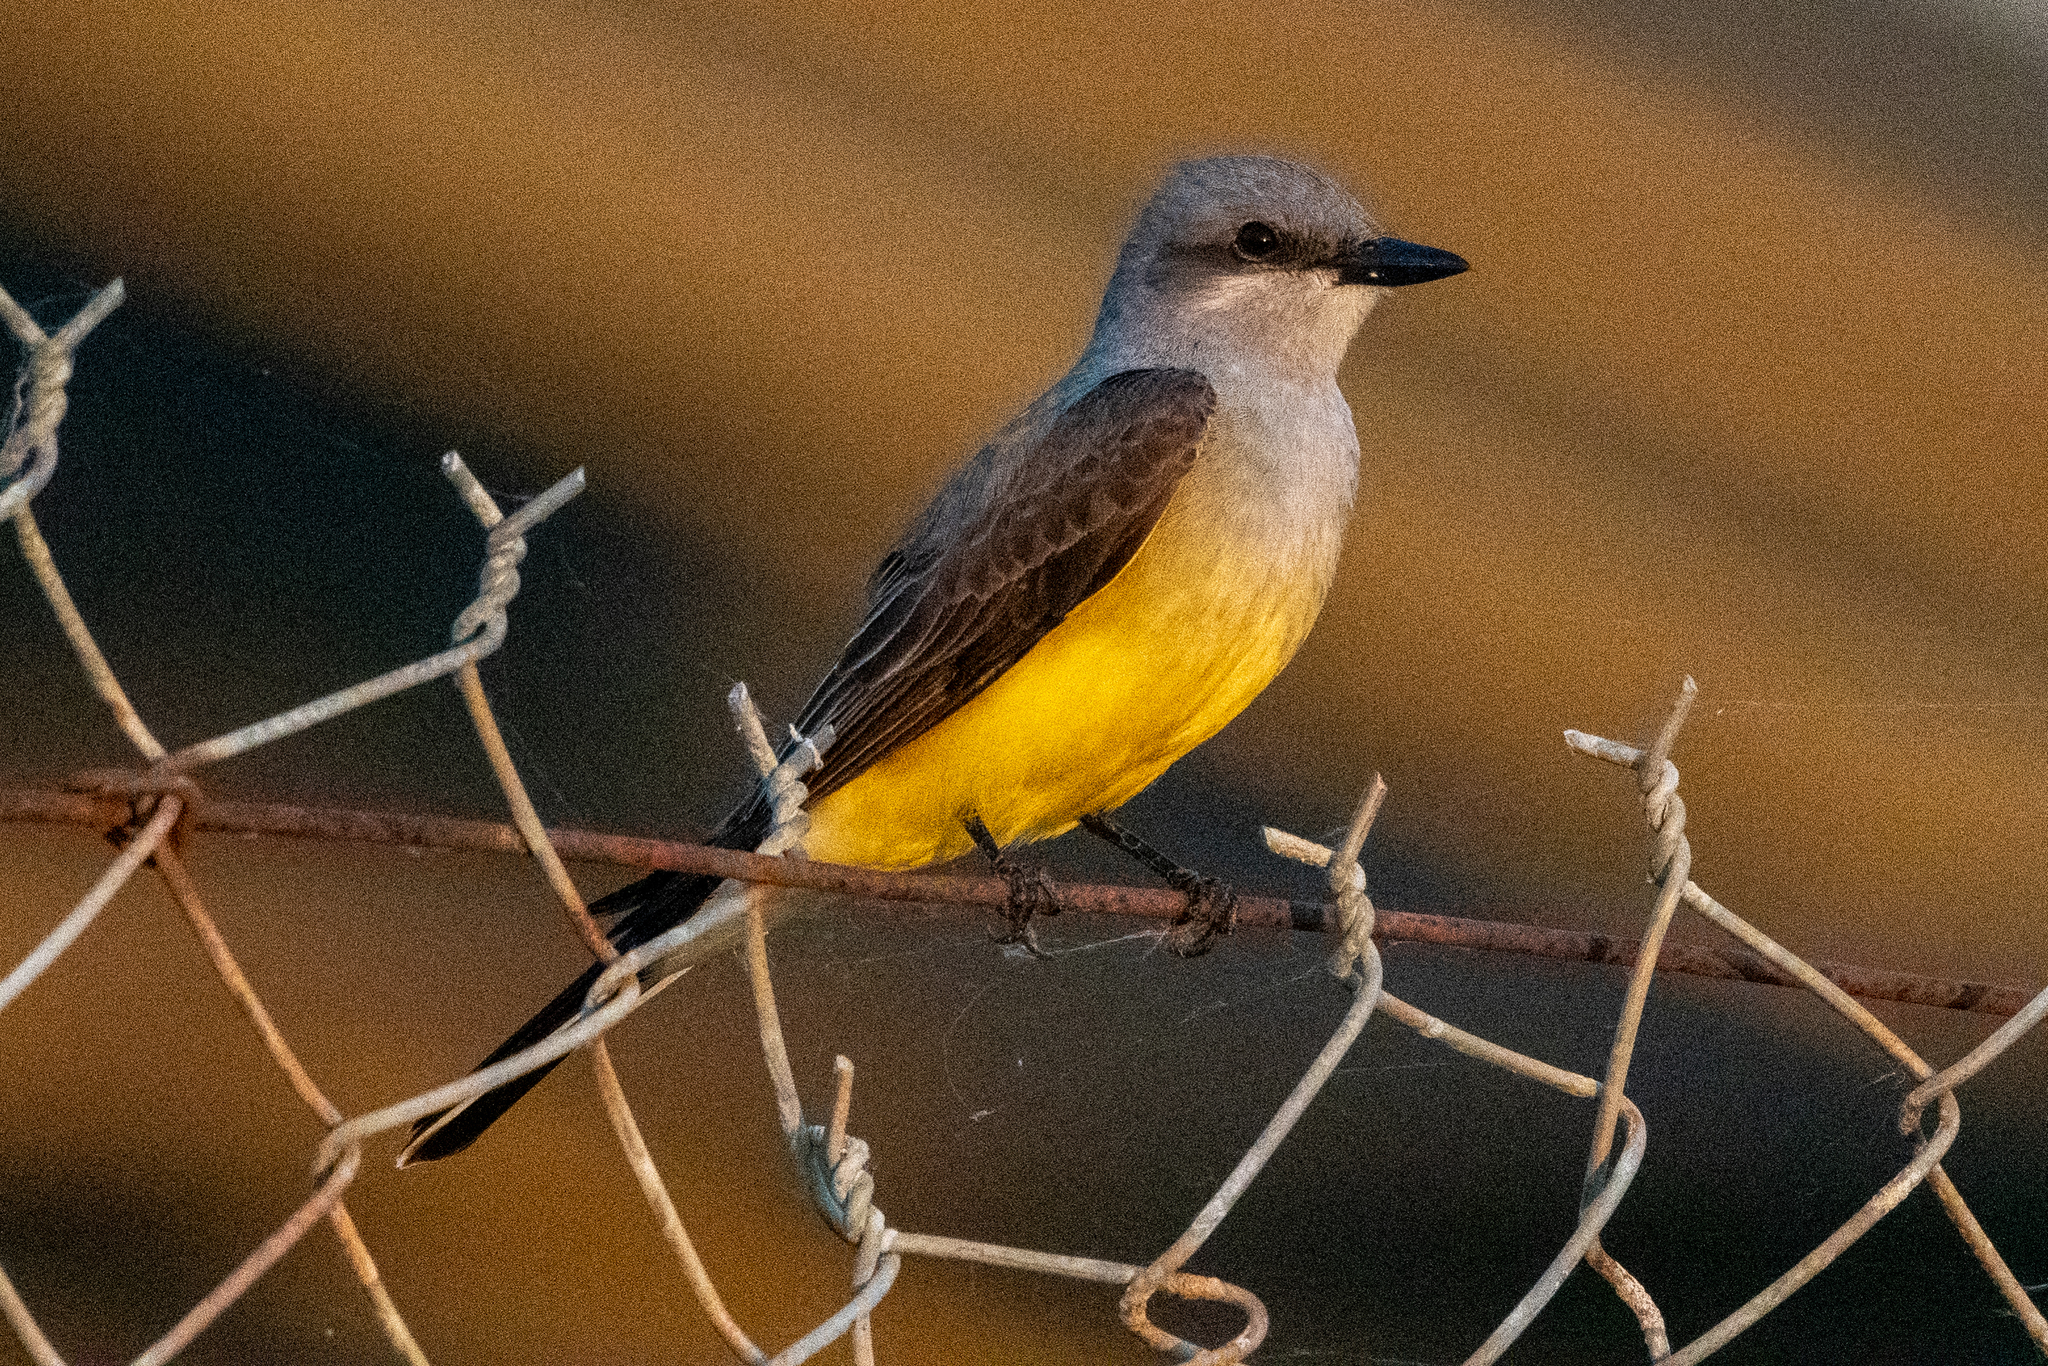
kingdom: Animalia
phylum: Chordata
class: Aves
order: Passeriformes
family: Tyrannidae
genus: Tyrannus
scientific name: Tyrannus verticalis
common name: Western kingbird
